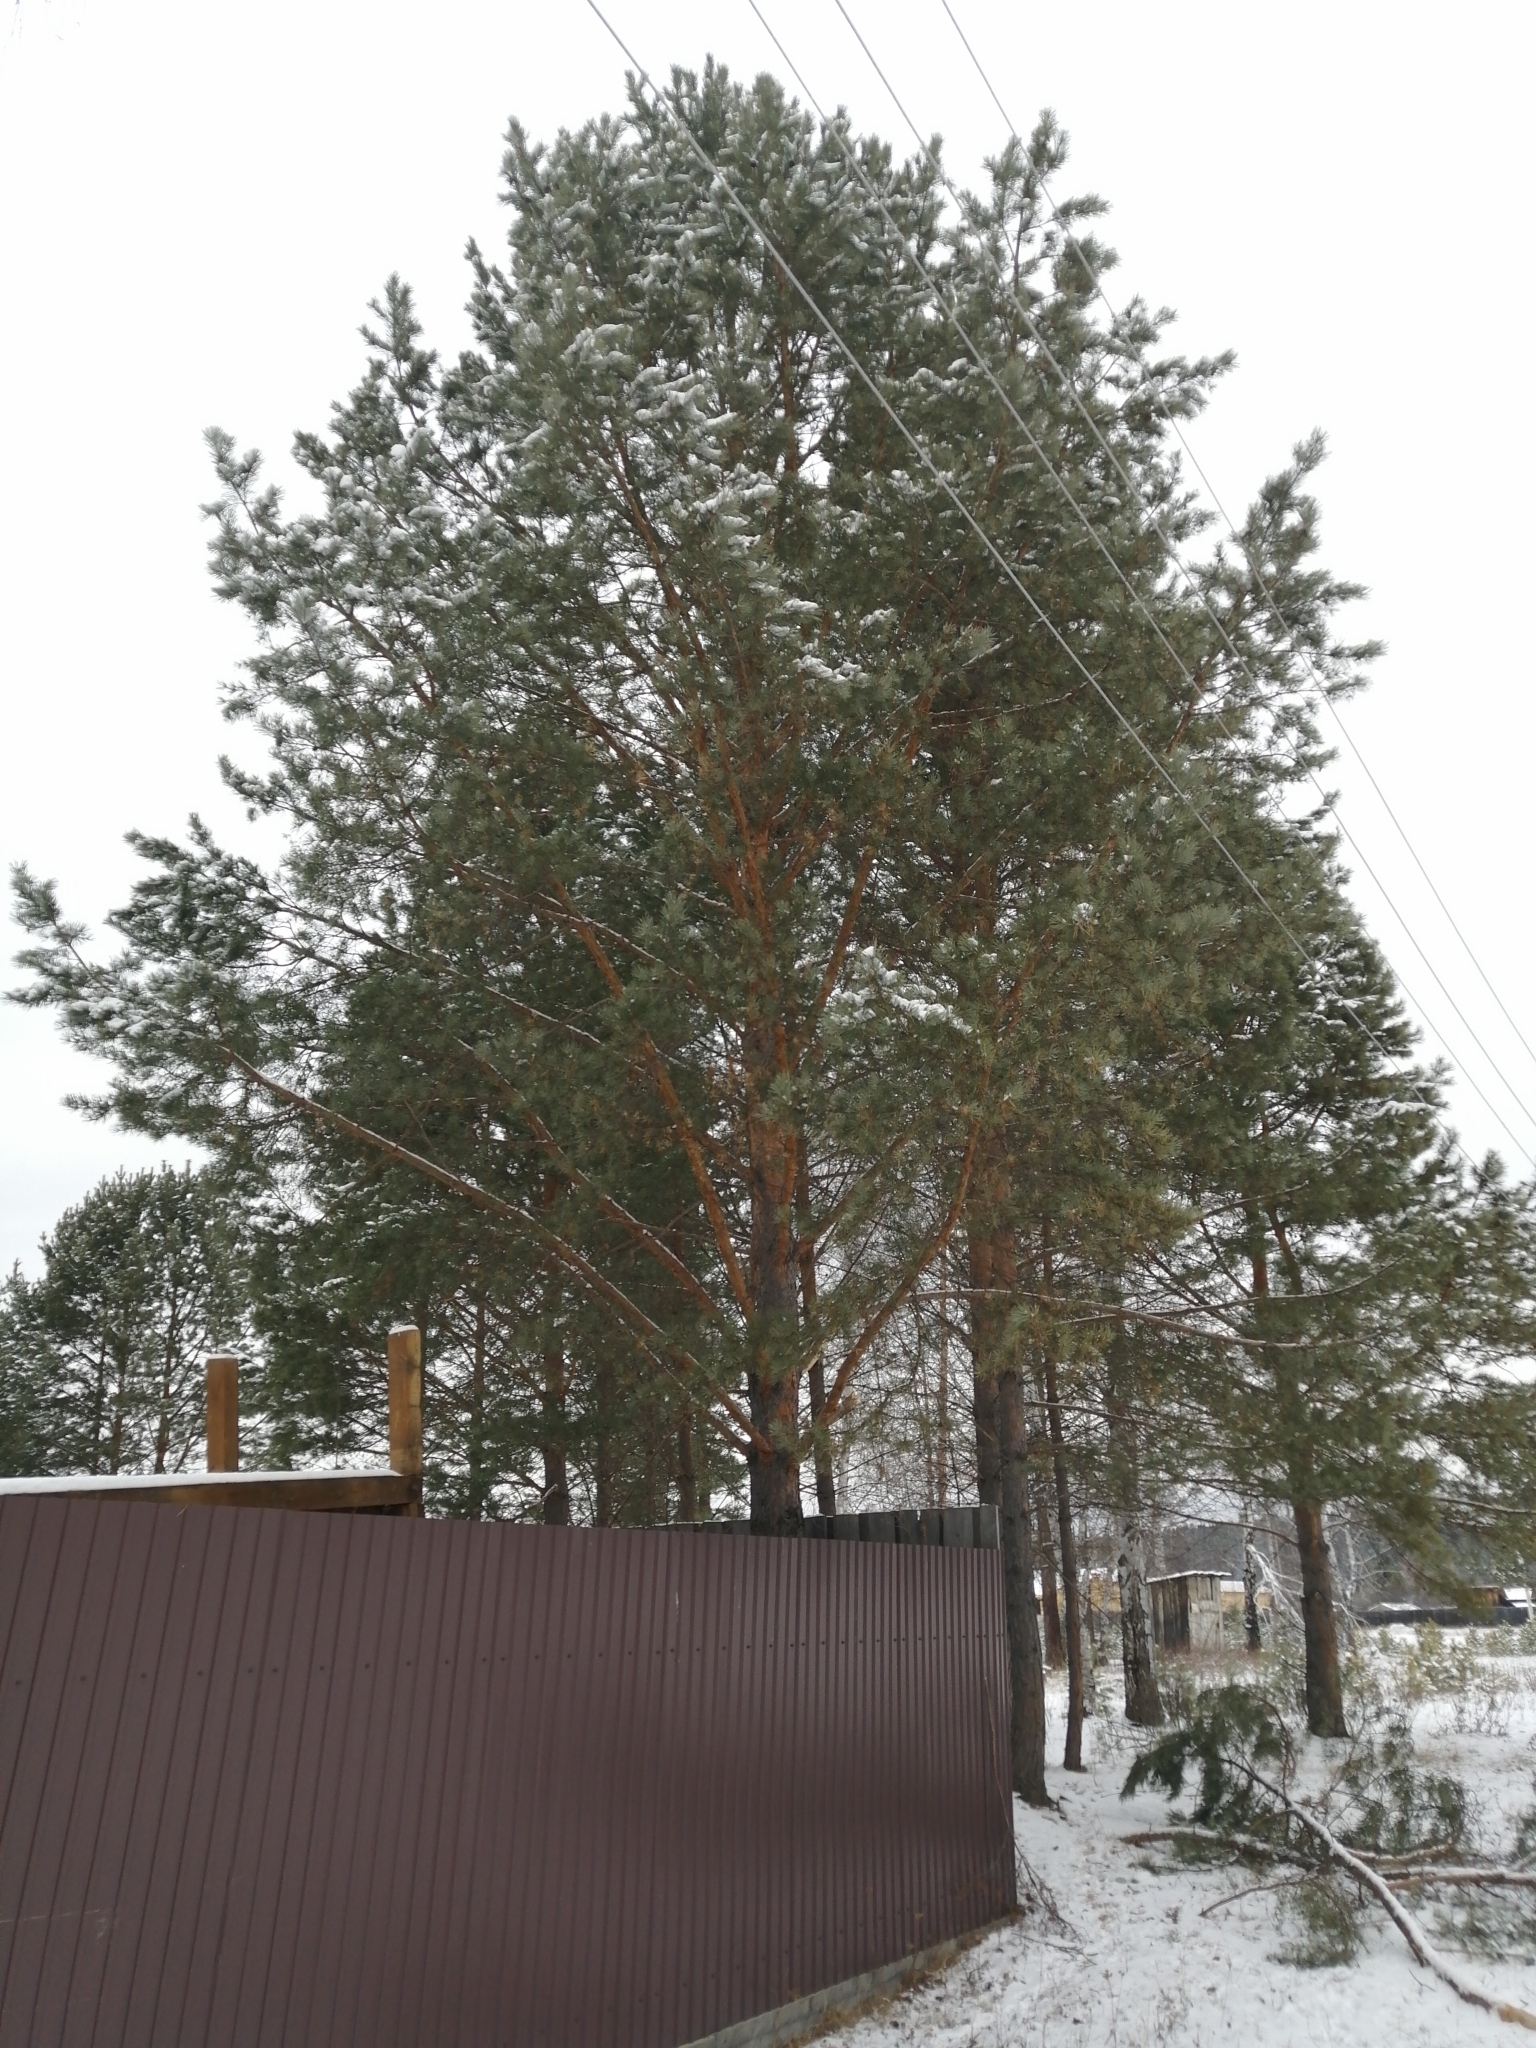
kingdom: Plantae
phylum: Tracheophyta
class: Pinopsida
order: Pinales
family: Pinaceae
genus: Pinus
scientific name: Pinus sylvestris
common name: Scots pine
